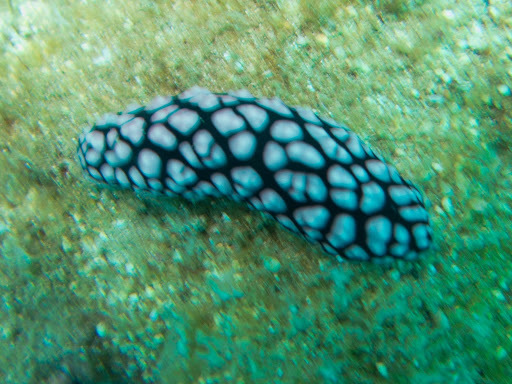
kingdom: Animalia
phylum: Mollusca
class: Gastropoda
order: Nudibranchia
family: Phyllidiidae
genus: Phyllidiella
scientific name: Phyllidiella pustulosa
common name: Pustular phyllidia
